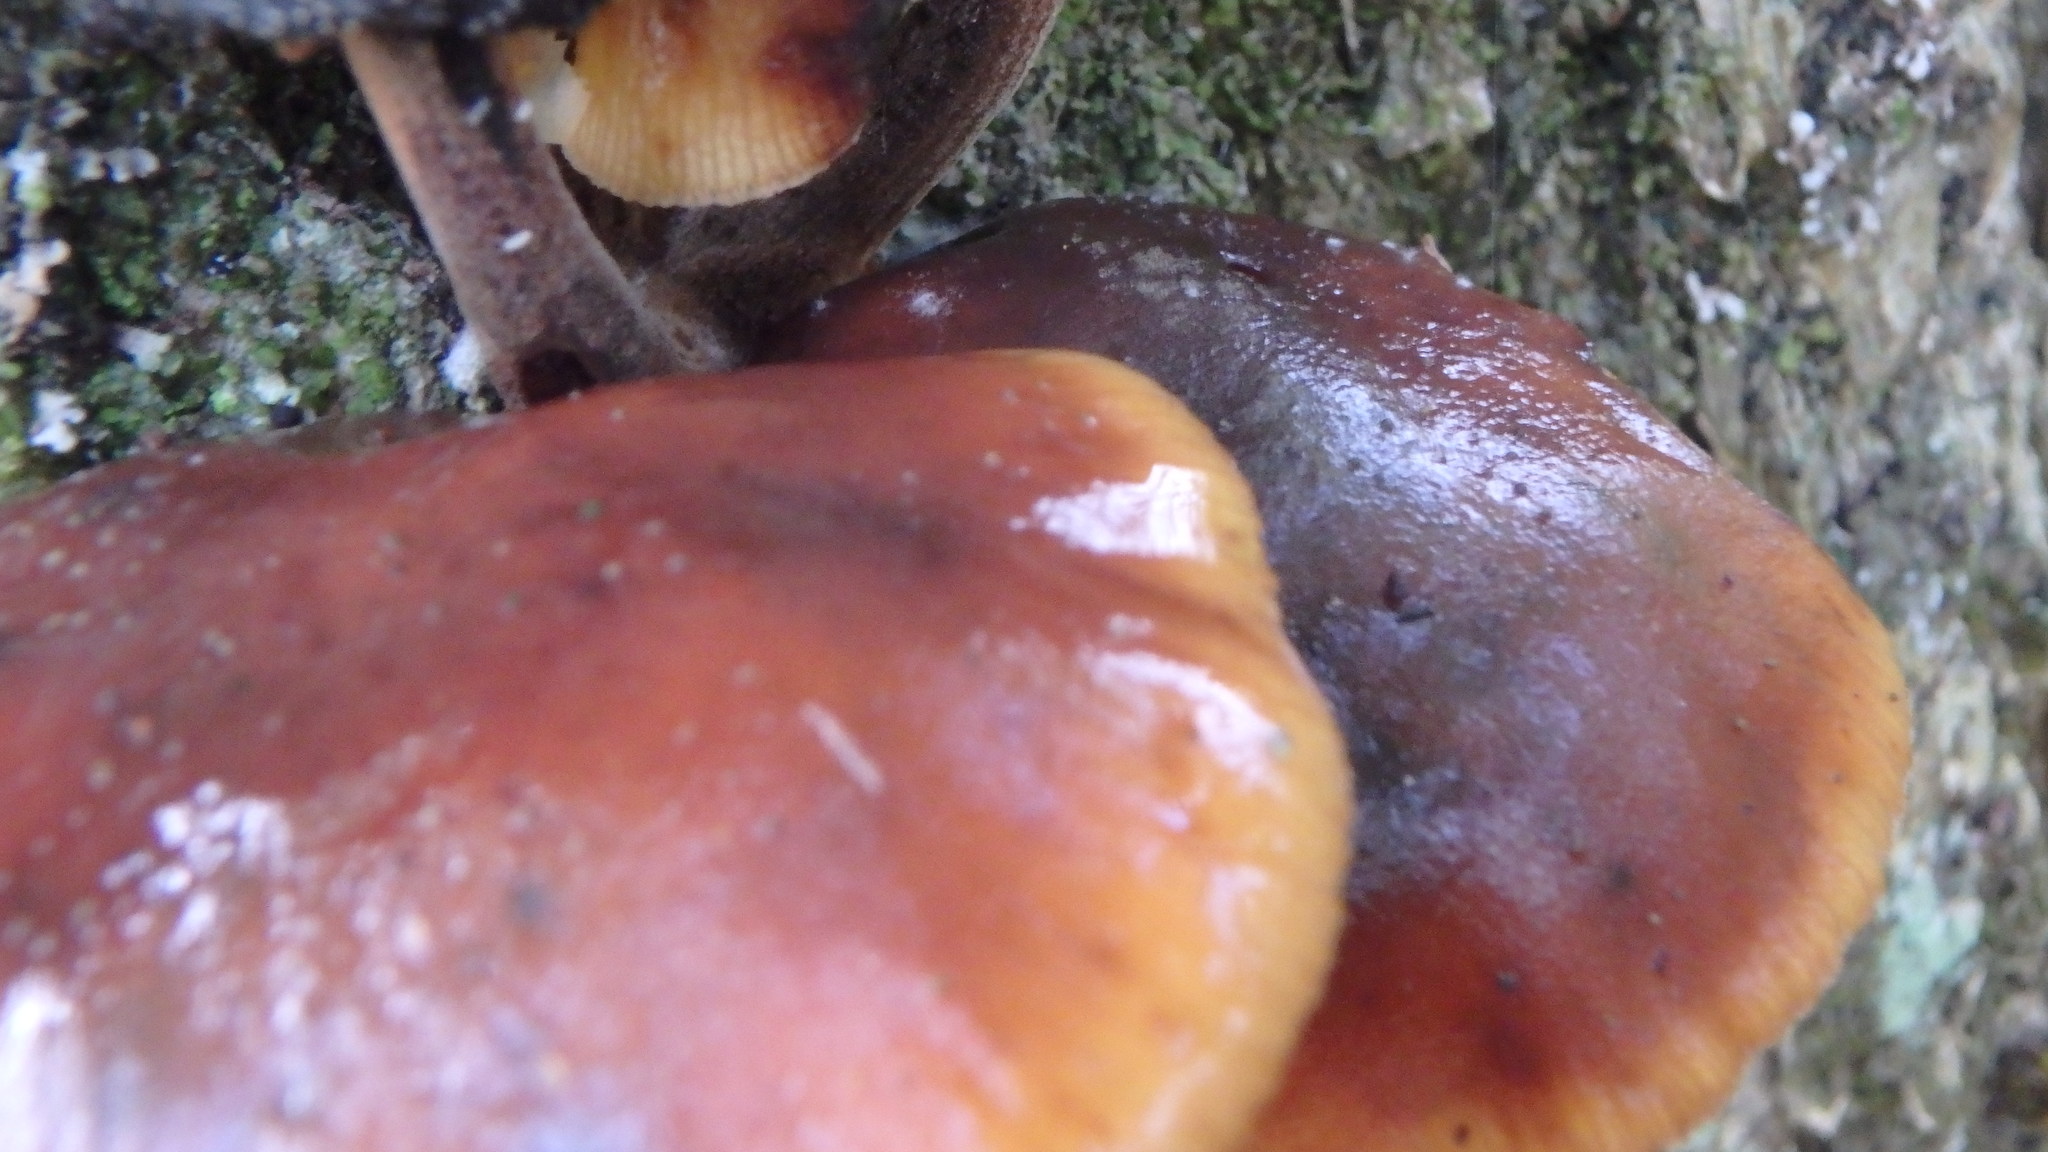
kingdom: Fungi
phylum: Basidiomycota
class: Agaricomycetes
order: Agaricales
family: Physalacriaceae
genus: Flammulina
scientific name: Flammulina velutipes
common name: Velvet shank
